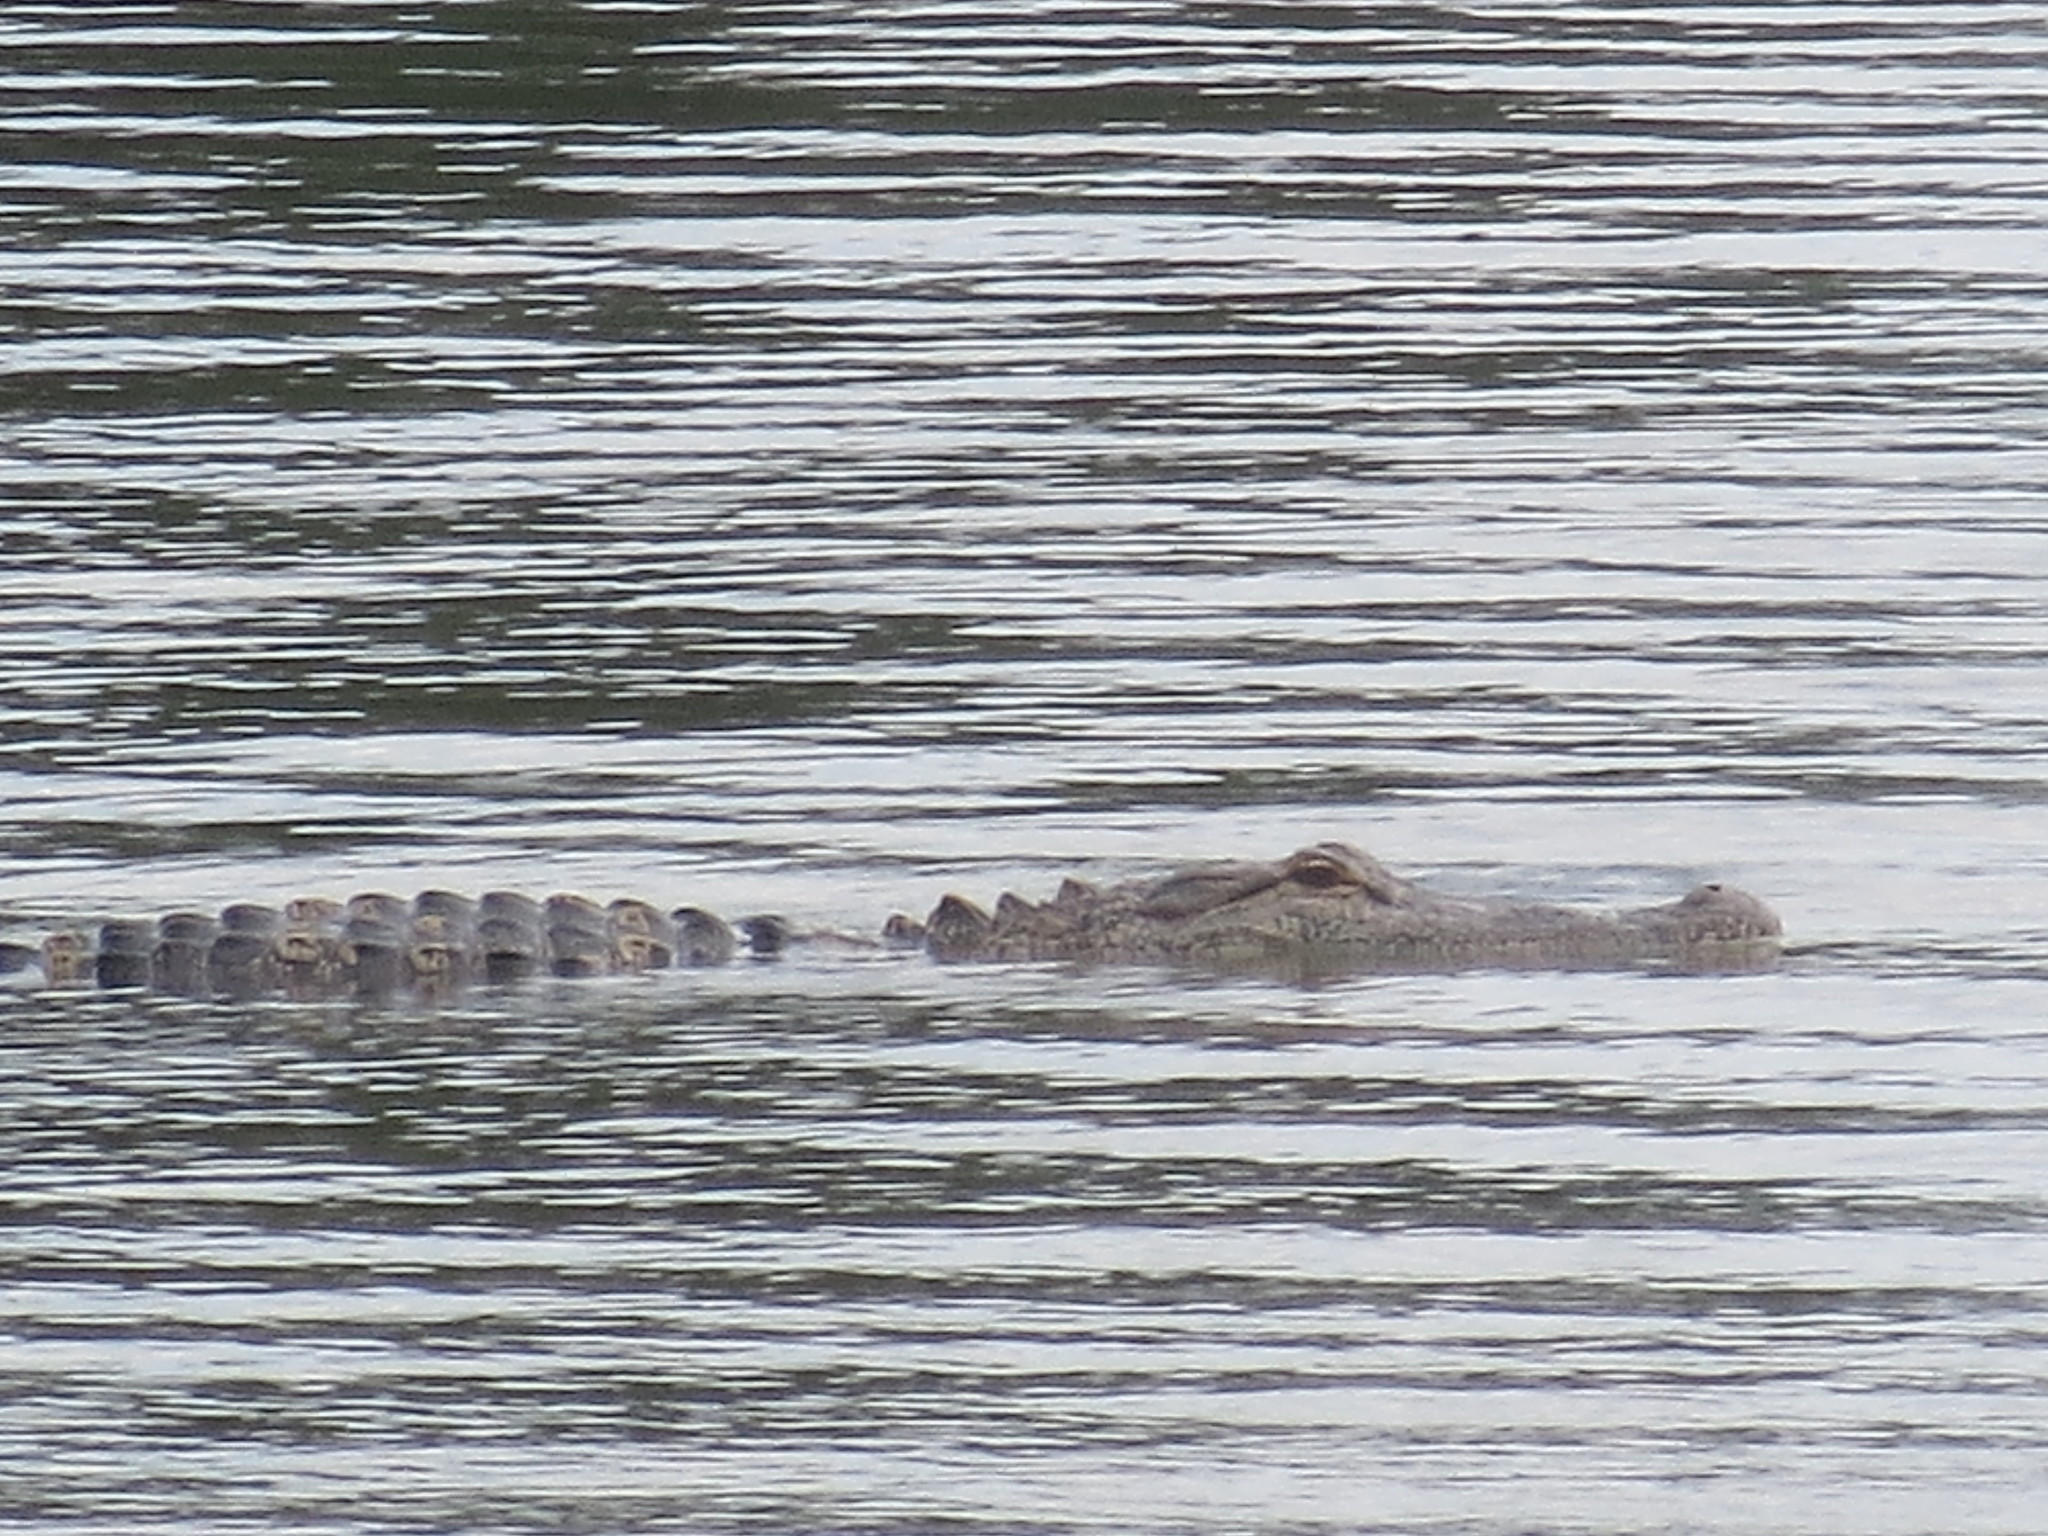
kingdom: Animalia
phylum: Chordata
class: Crocodylia
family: Alligatoridae
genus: Alligator
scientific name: Alligator mississippiensis
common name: American alligator
